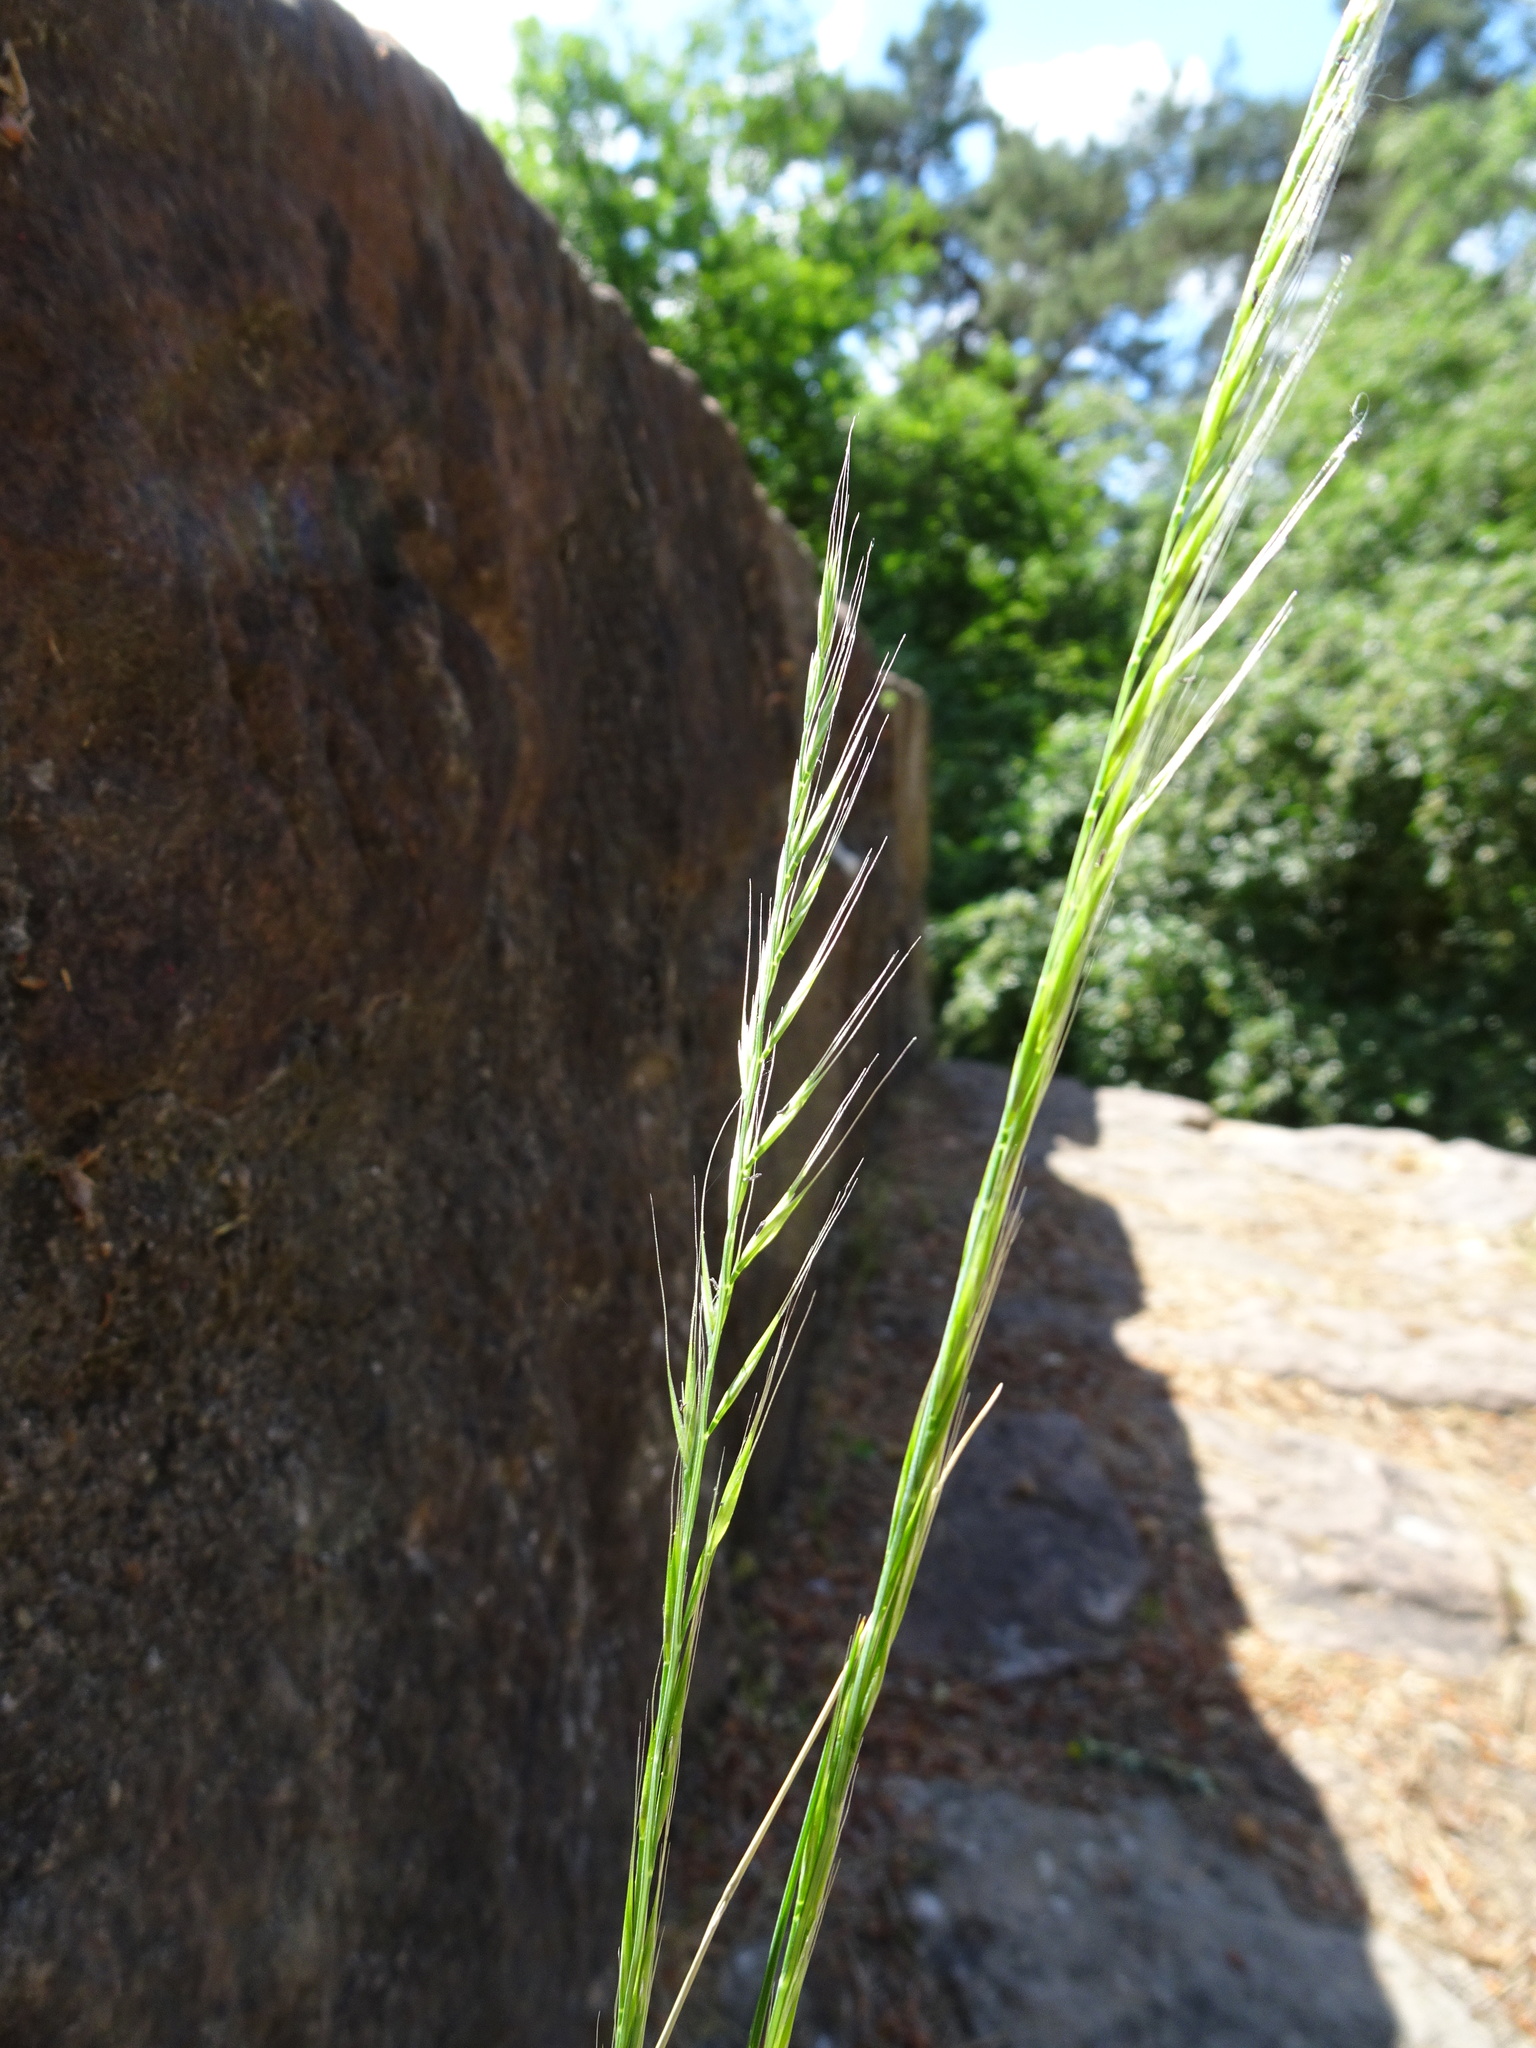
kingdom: Plantae
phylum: Tracheophyta
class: Liliopsida
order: Poales
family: Poaceae
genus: Festuca
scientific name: Festuca myuros
